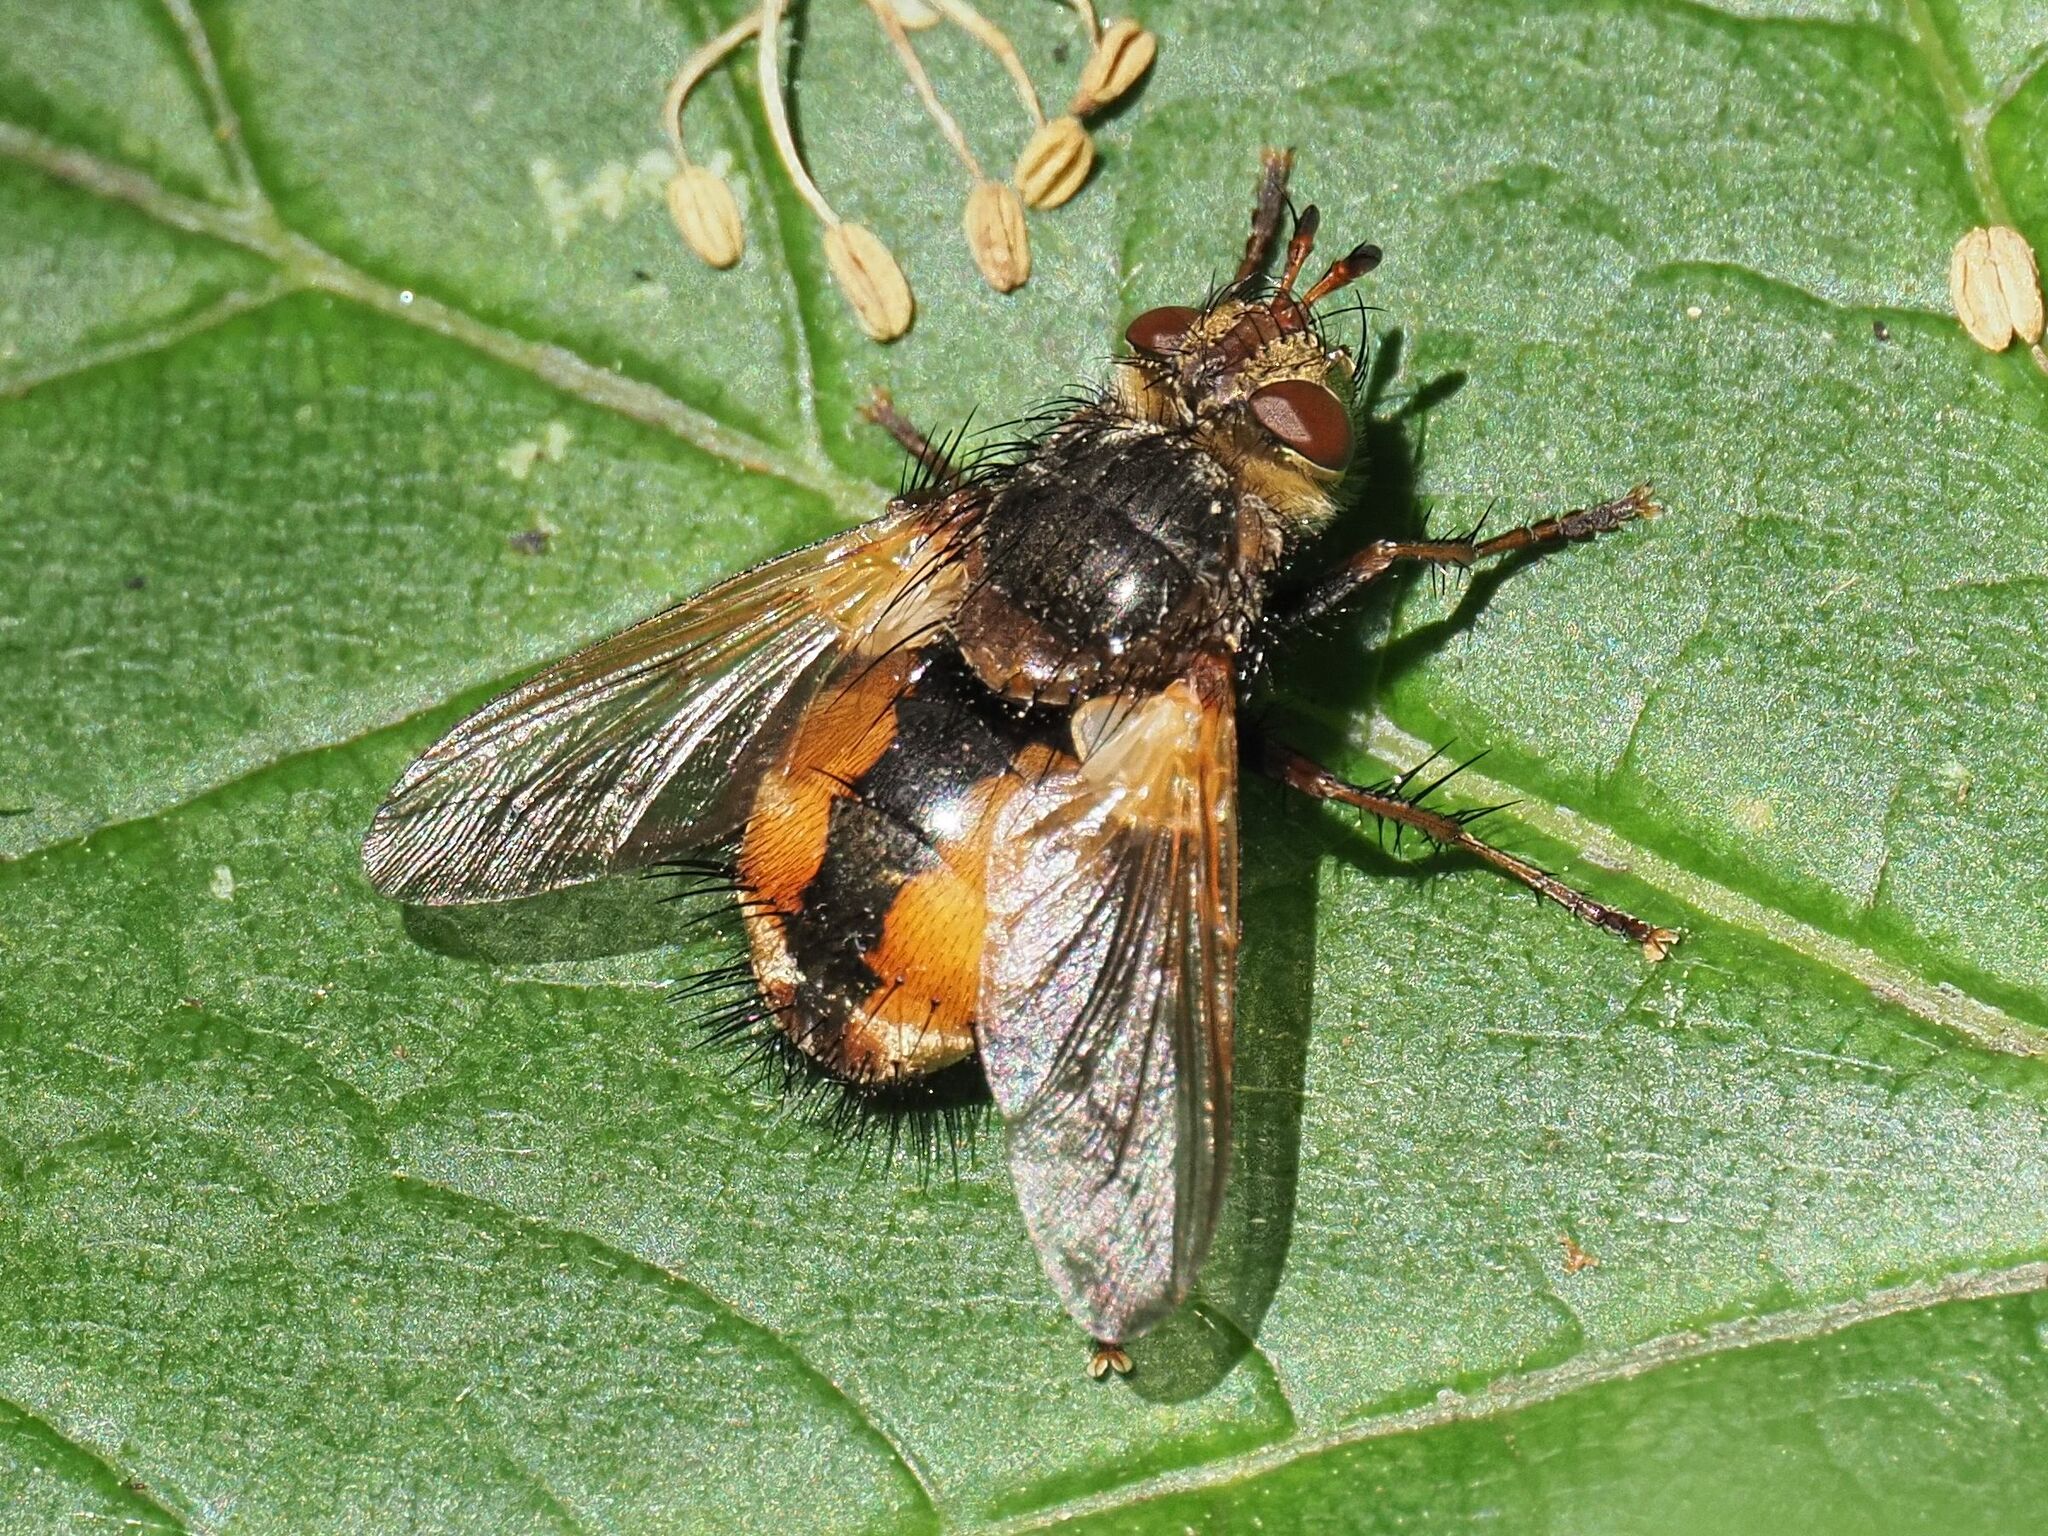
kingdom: Animalia
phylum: Arthropoda
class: Insecta
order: Diptera
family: Tachinidae
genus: Tachina
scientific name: Tachina fera
